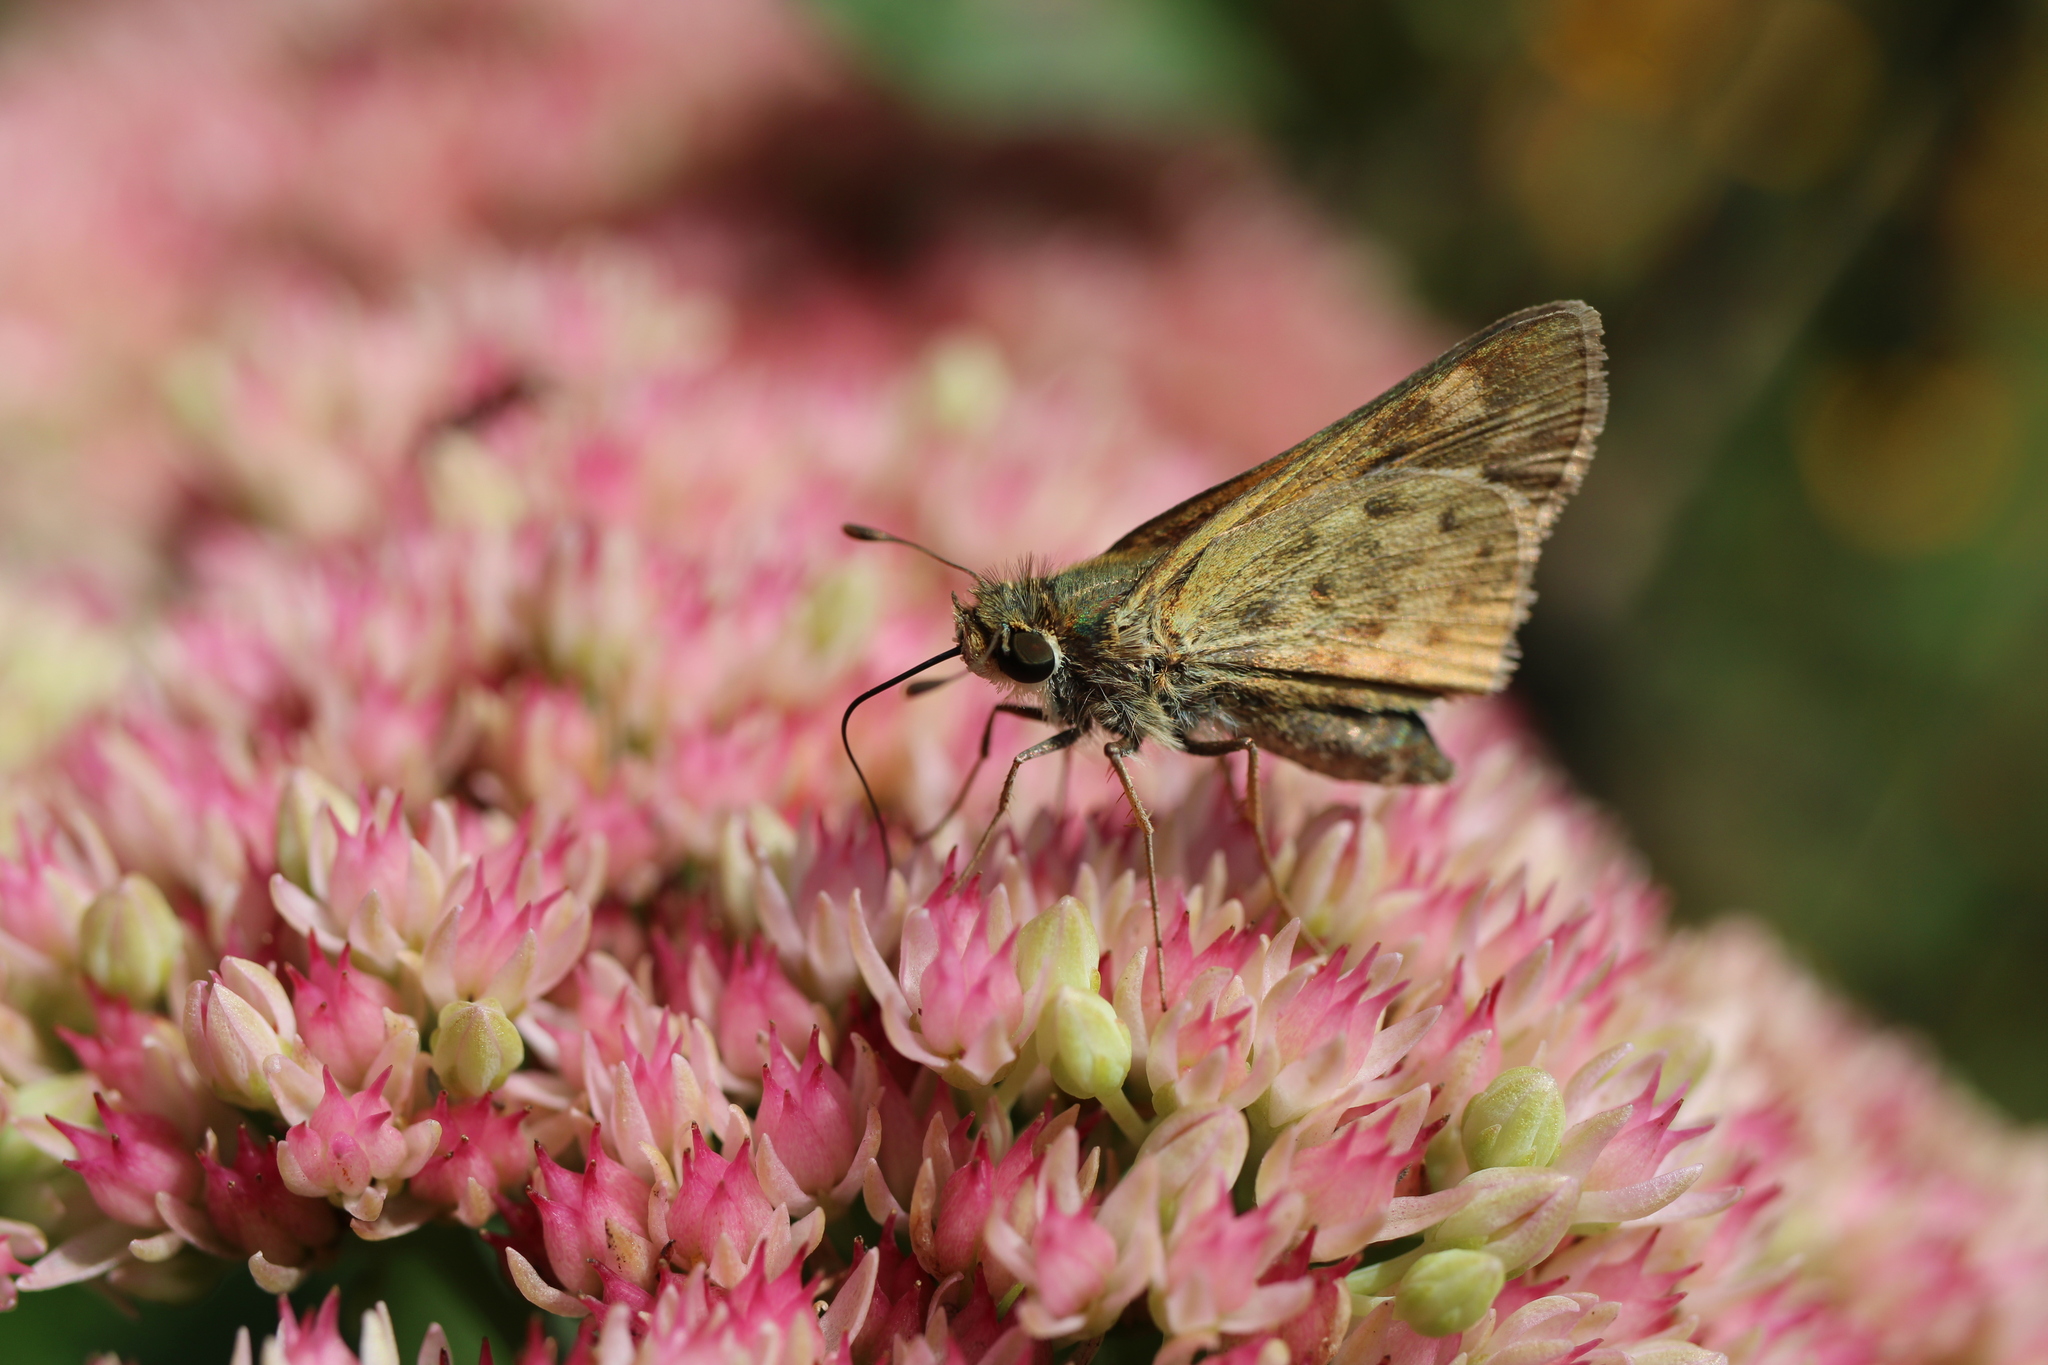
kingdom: Animalia
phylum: Arthropoda
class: Insecta
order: Lepidoptera
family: Hesperiidae
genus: Hylephila
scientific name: Hylephila phyleus
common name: Fiery skipper
